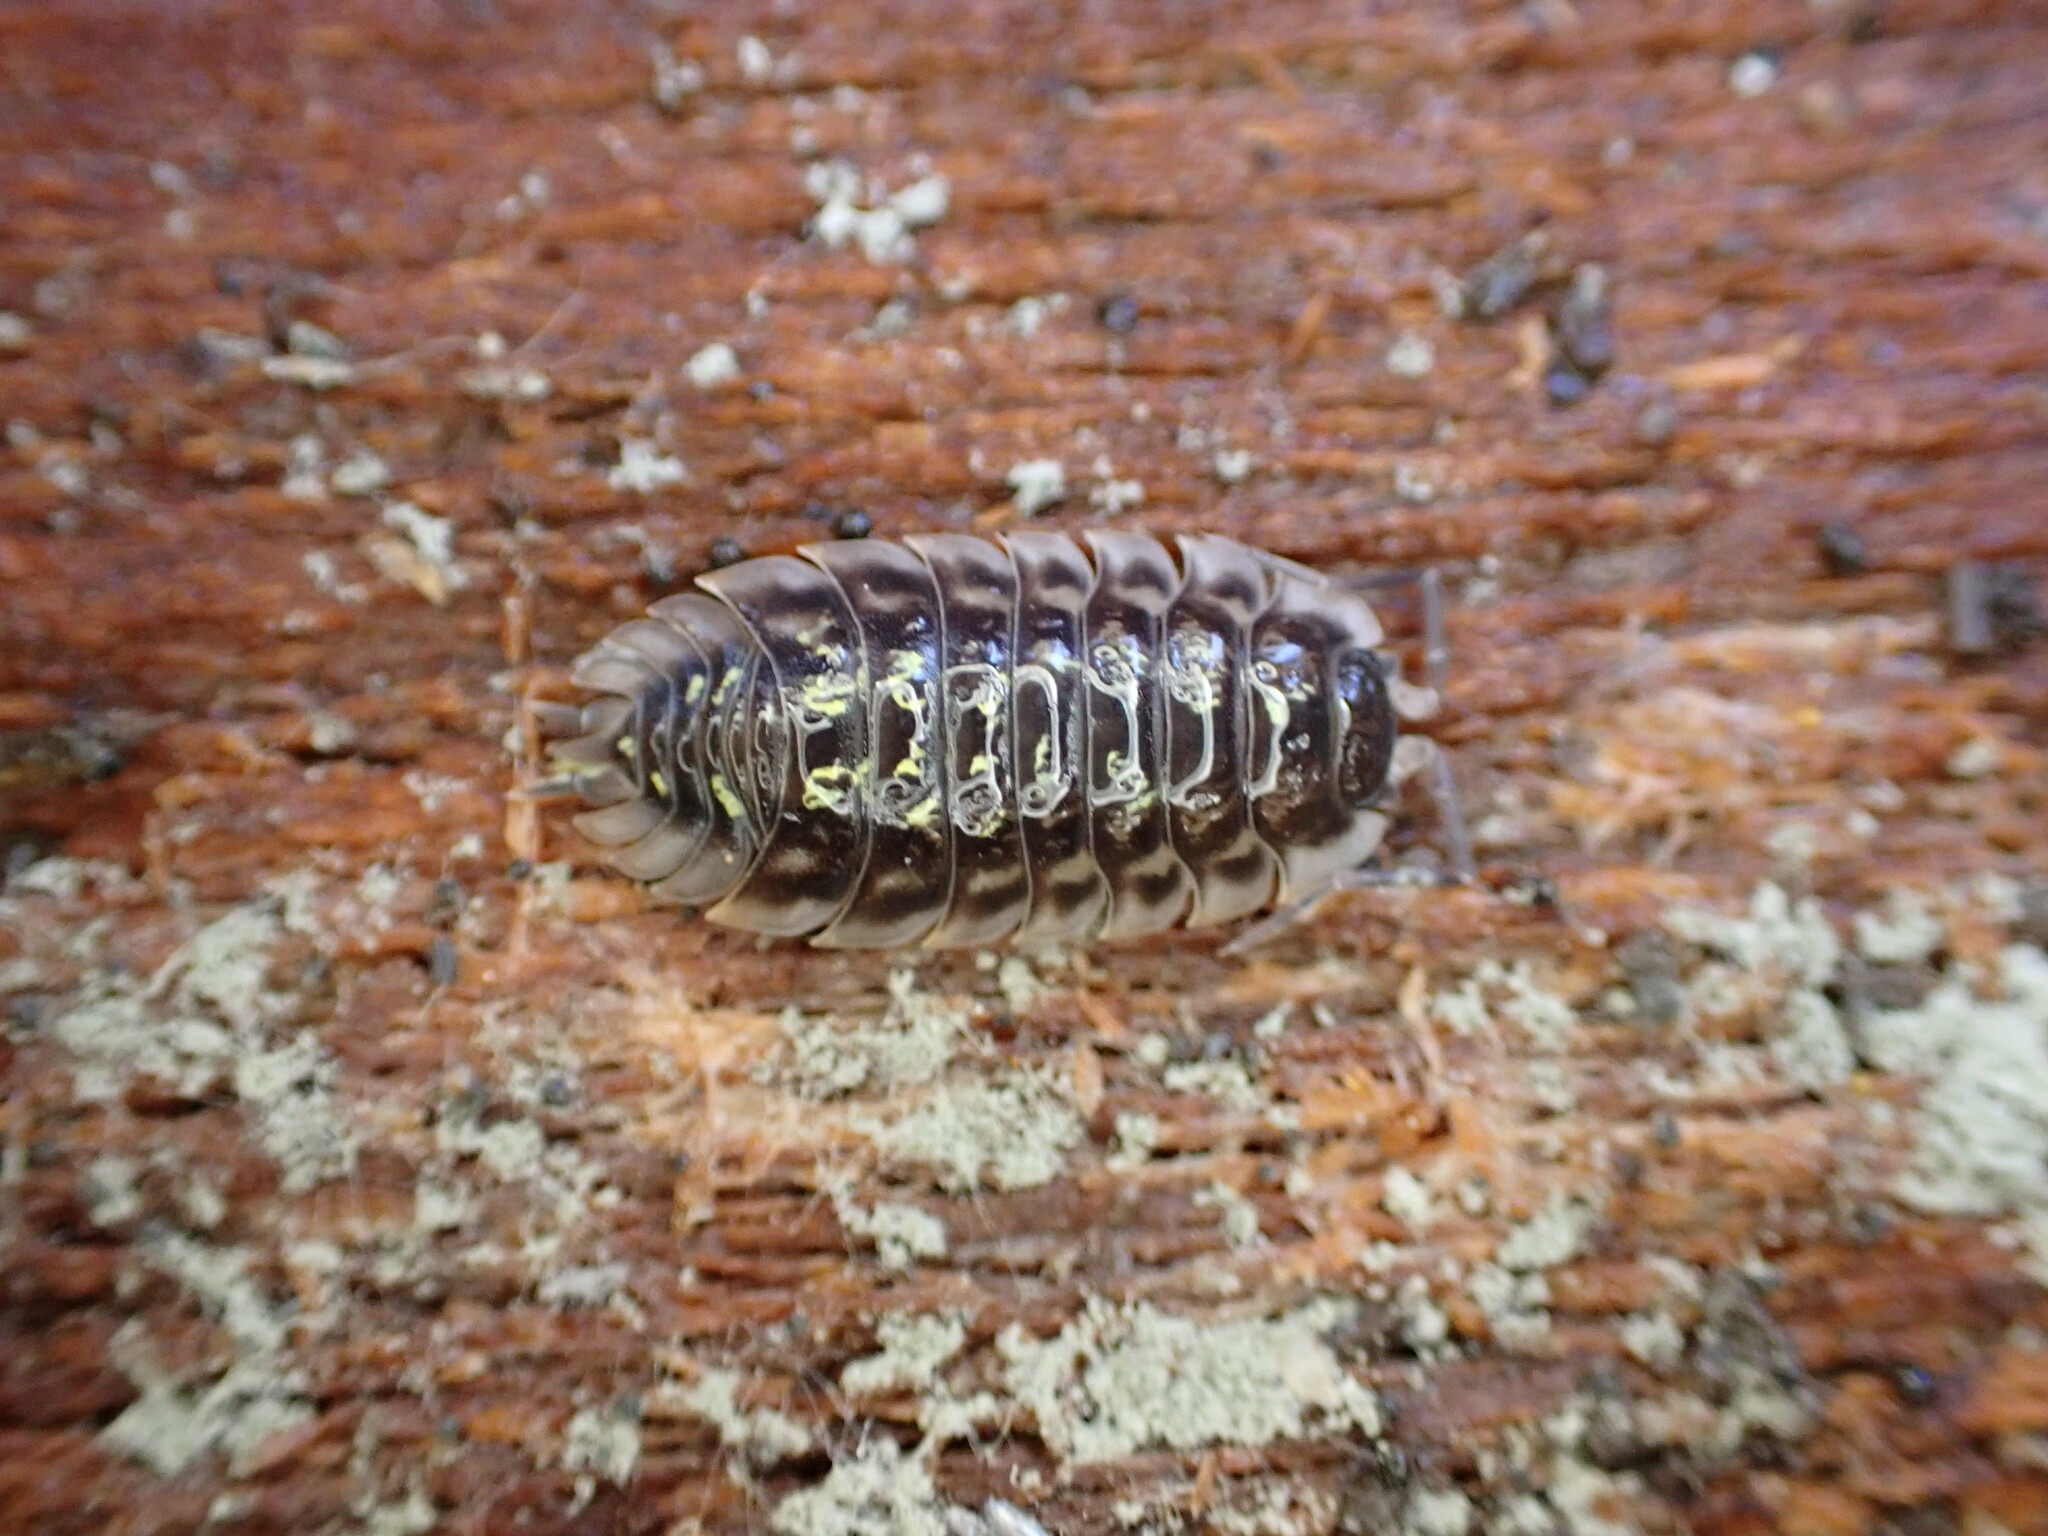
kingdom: Animalia
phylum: Arthropoda
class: Malacostraca
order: Isopoda
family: Oniscidae
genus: Oniscus
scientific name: Oniscus asellus
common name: Common shiny woodlouse
